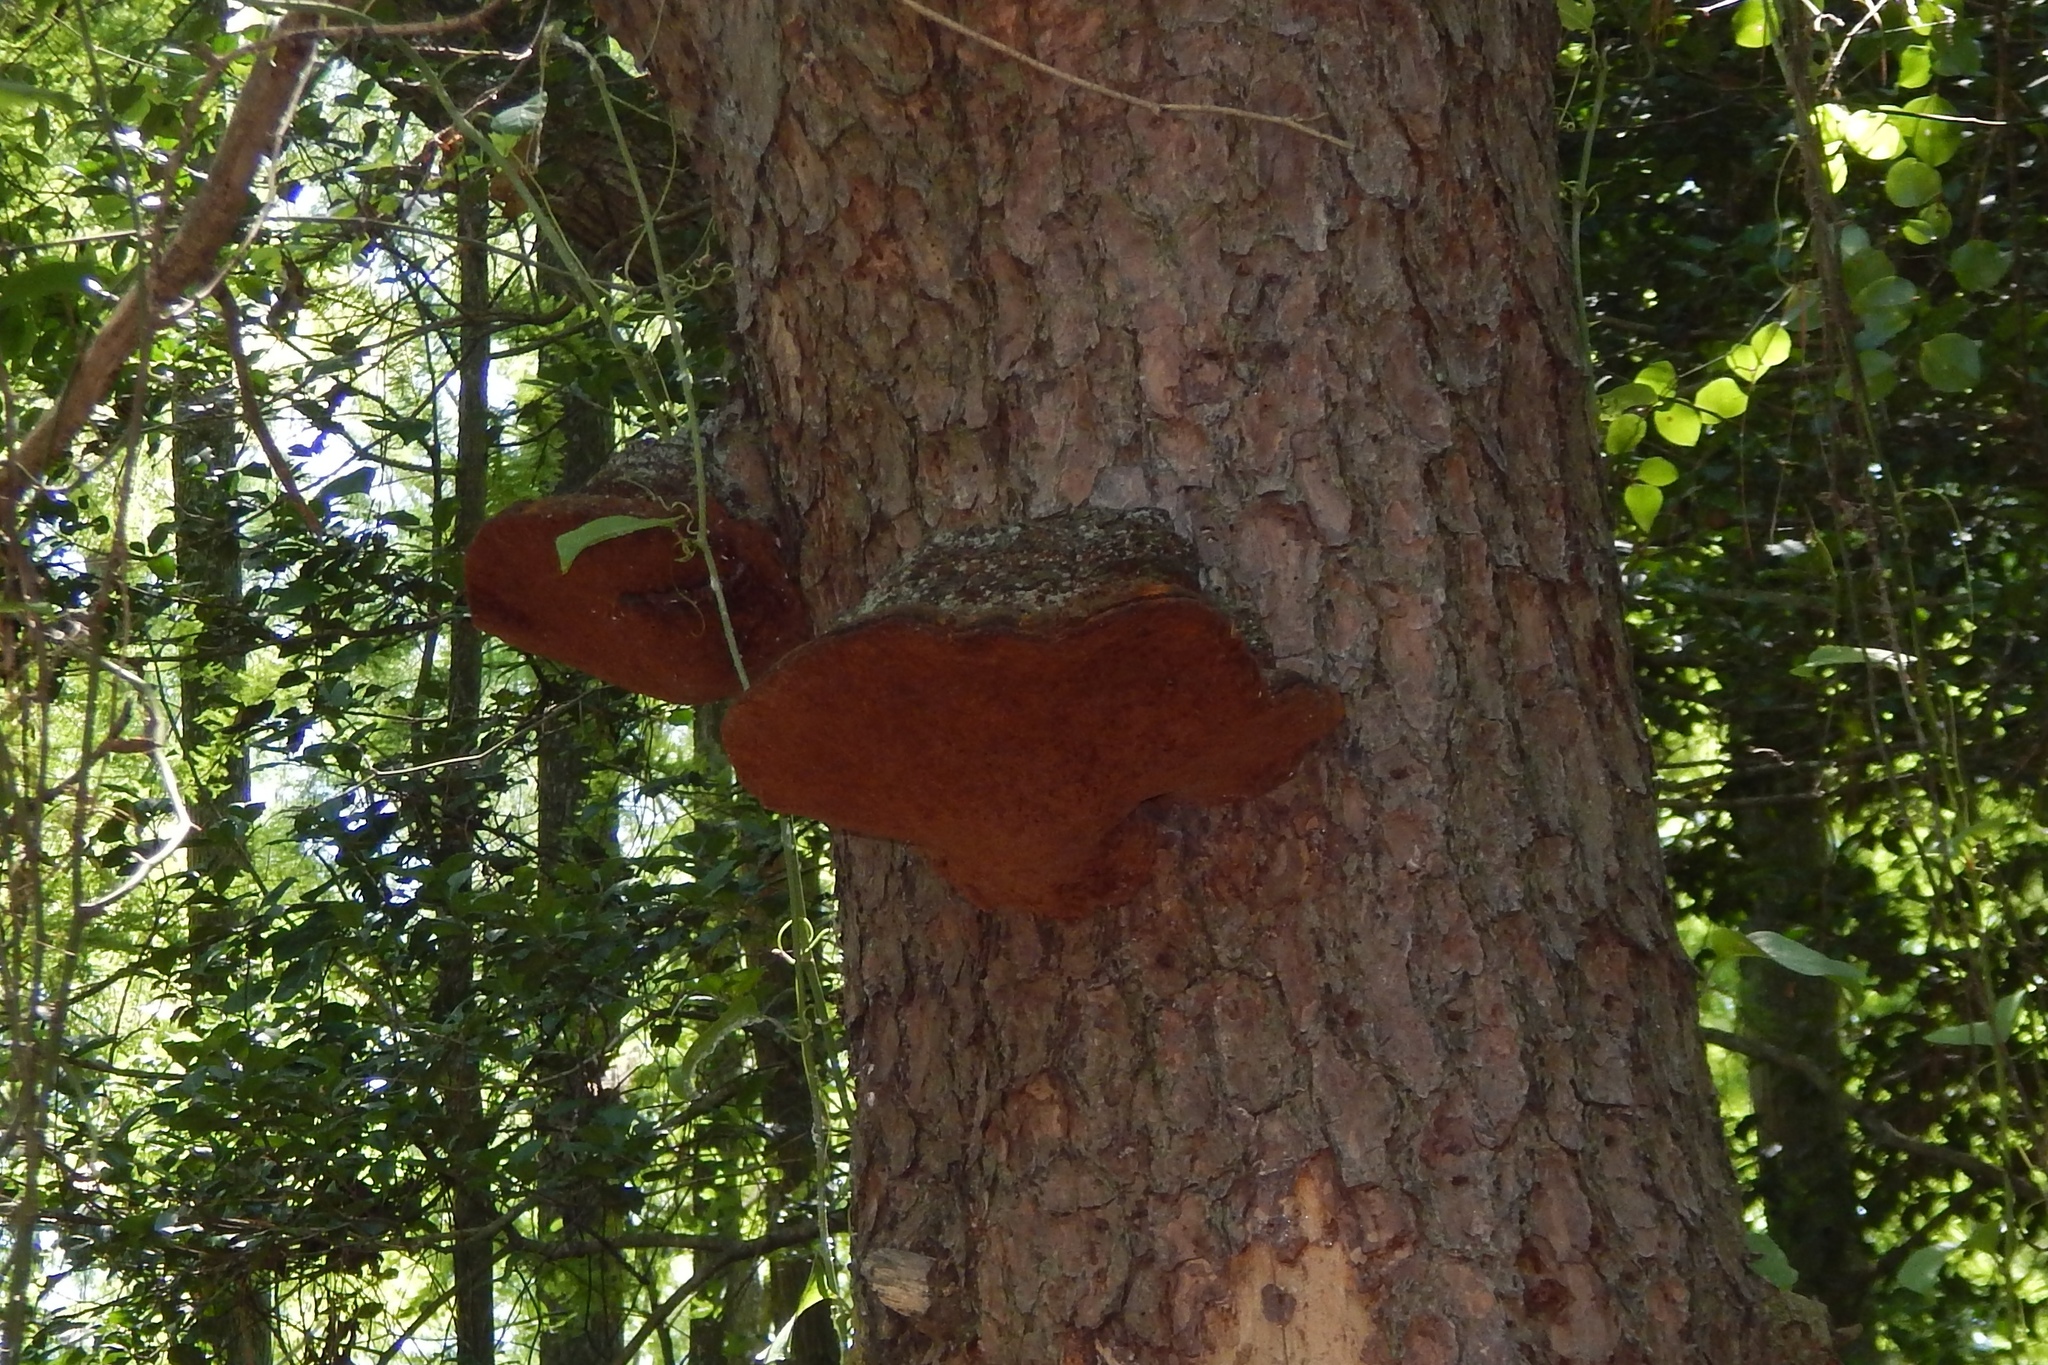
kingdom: Fungi
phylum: Basidiomycota
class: Agaricomycetes
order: Hymenochaetales
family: Hymenochaetaceae
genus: Porodaedalea
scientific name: Porodaedalea pini
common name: Pine bracket
